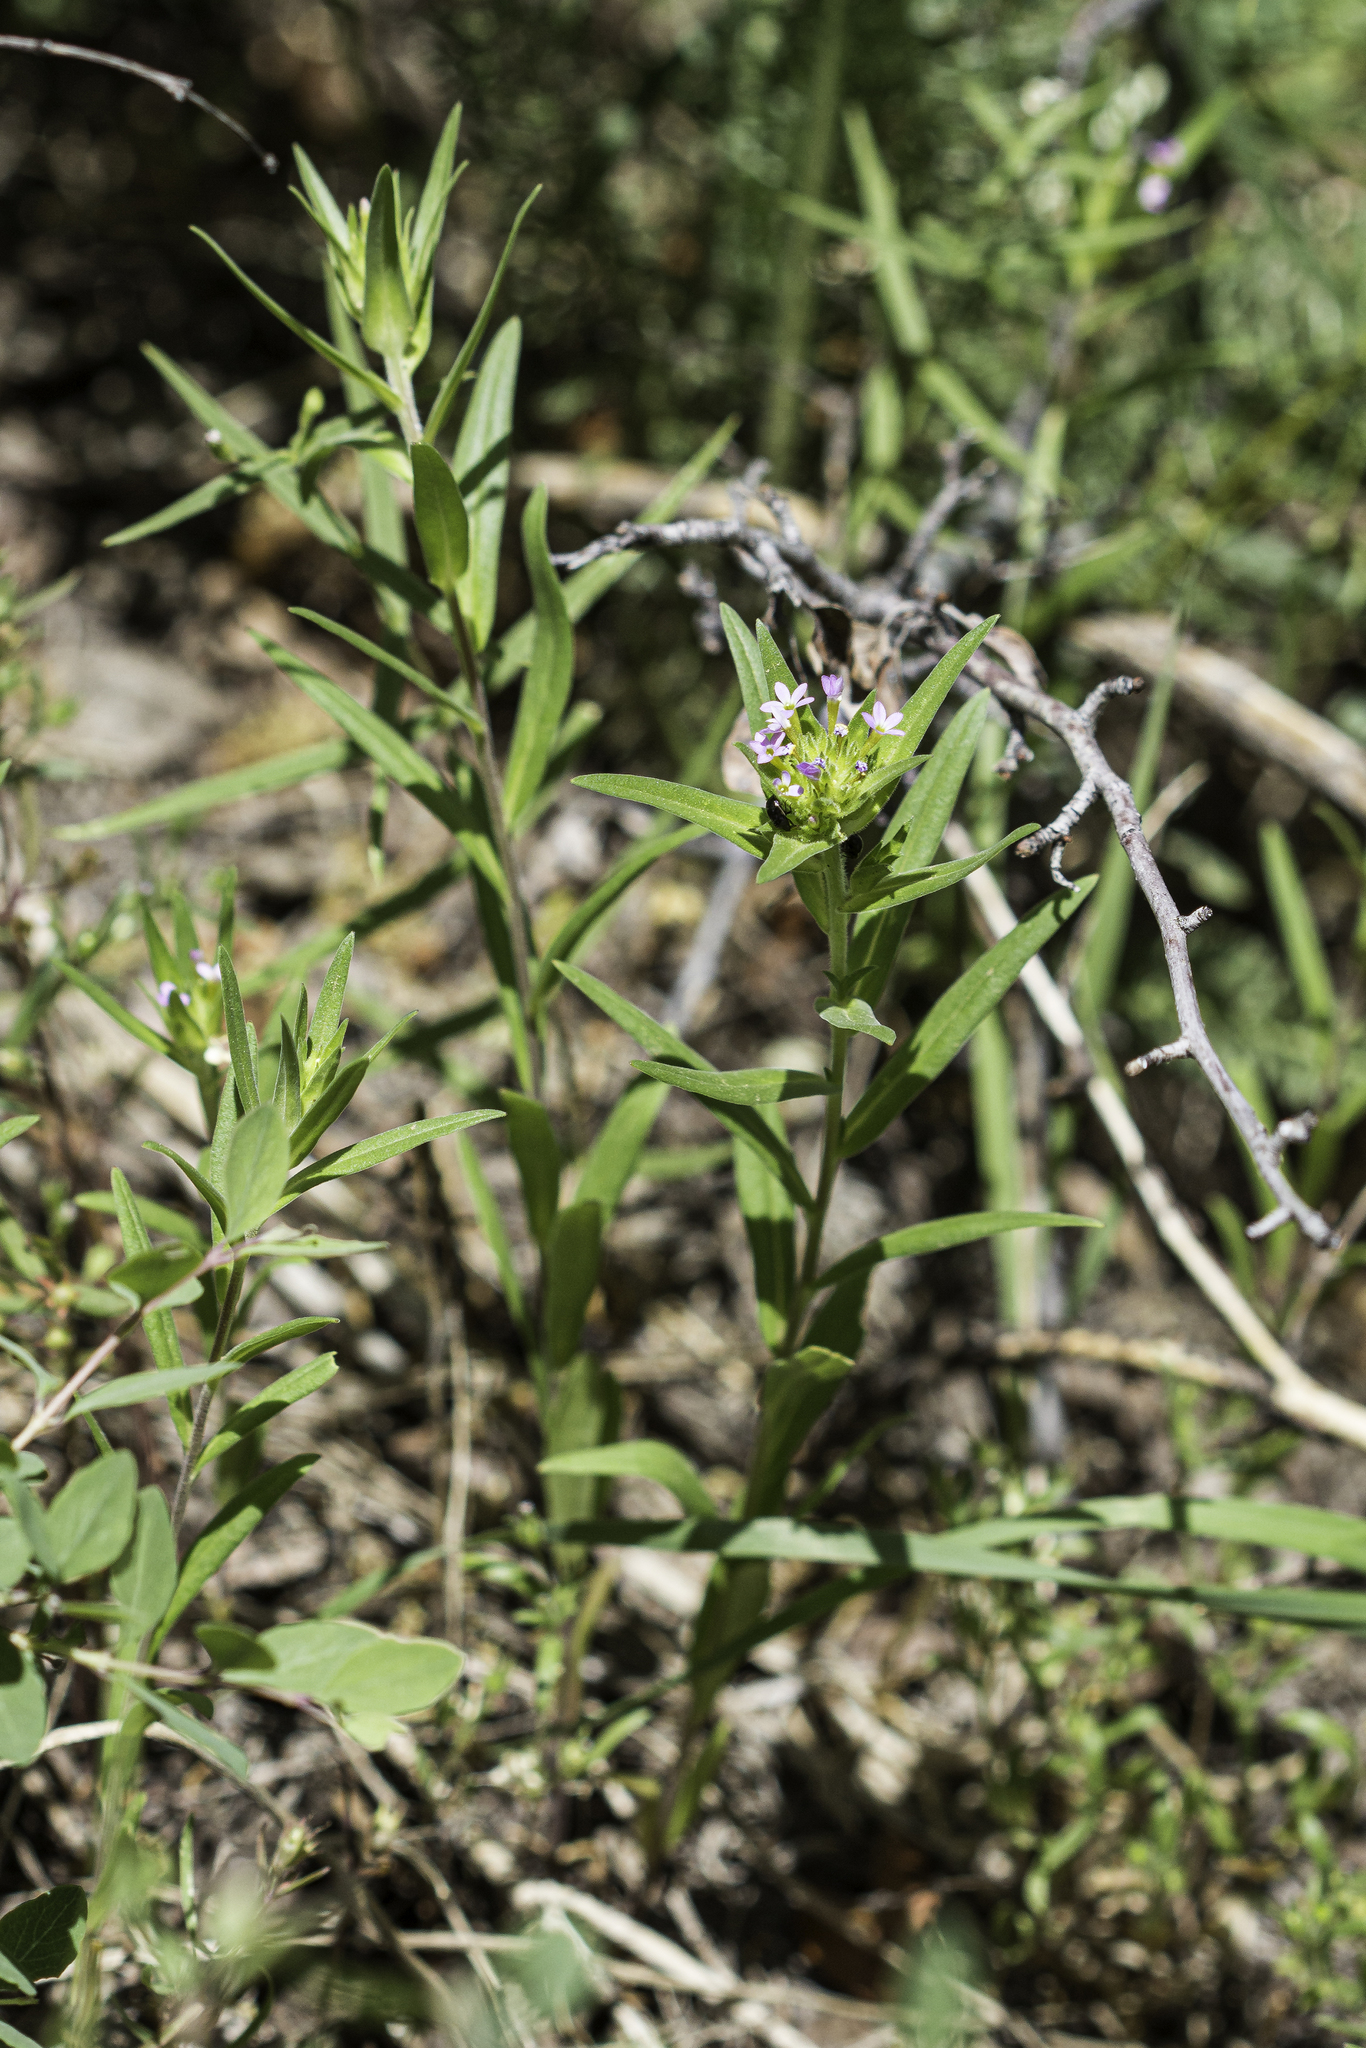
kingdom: Plantae
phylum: Tracheophyta
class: Magnoliopsida
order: Ericales
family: Polemoniaceae
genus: Collomia
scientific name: Collomia linearis
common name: Tiny trumpet
